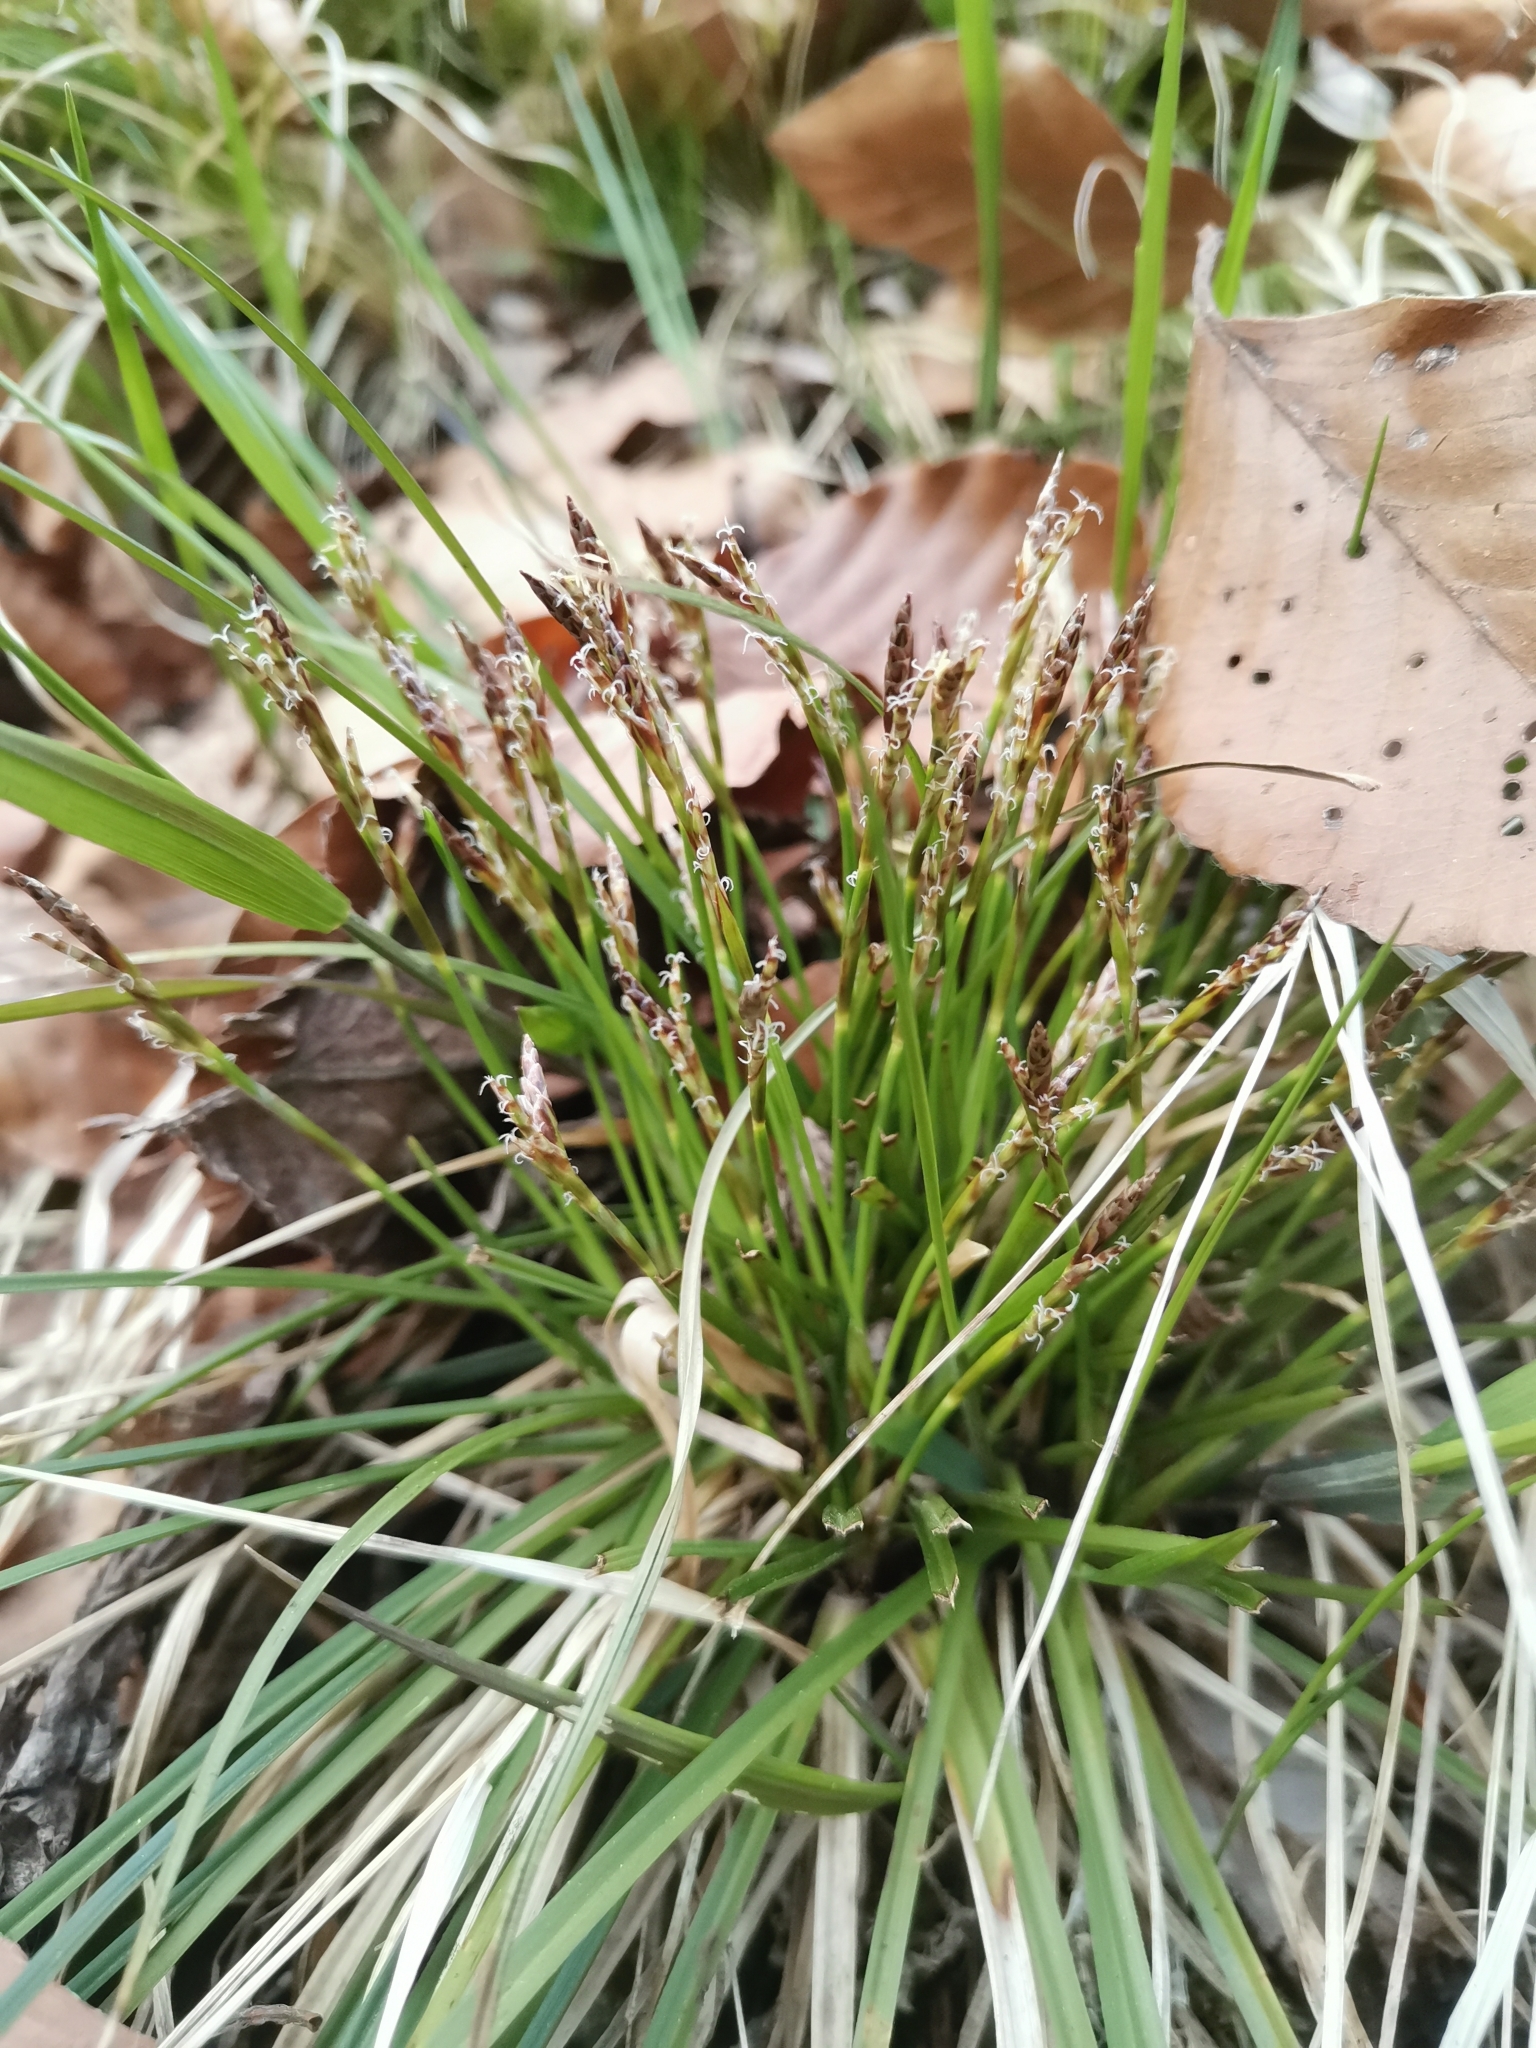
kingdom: Plantae
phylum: Tracheophyta
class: Liliopsida
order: Poales
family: Cyperaceae
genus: Carex
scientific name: Carex digitata
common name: Fingered sedge
